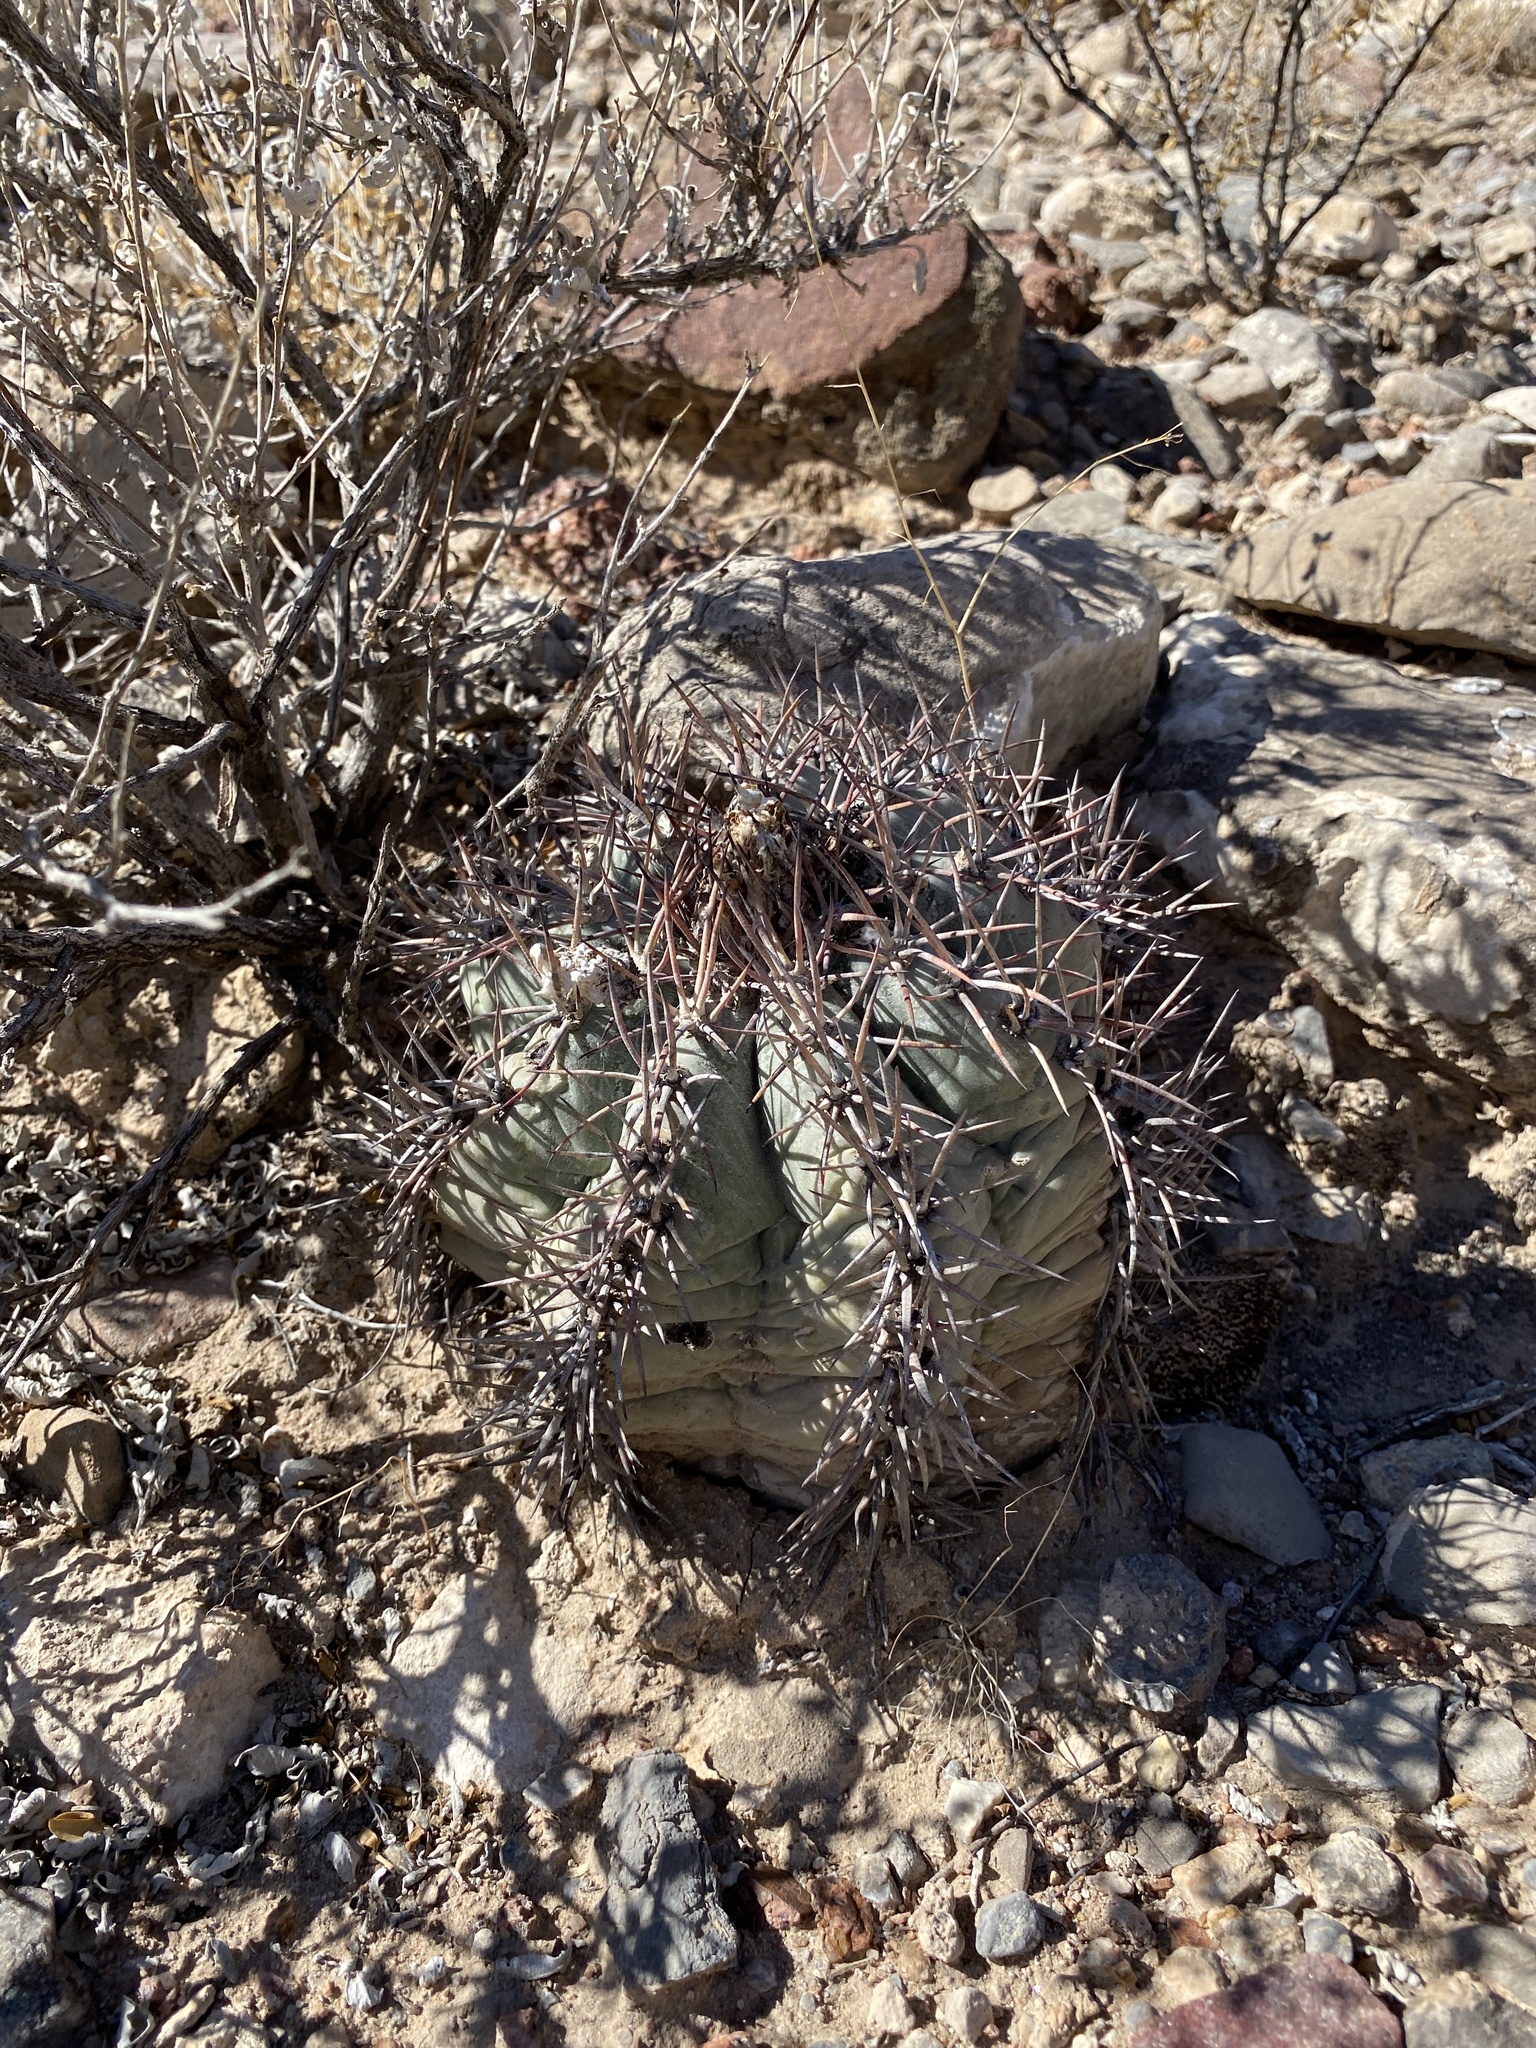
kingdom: Plantae
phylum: Tracheophyta
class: Magnoliopsida
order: Caryophyllales
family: Cactaceae
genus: Echinocactus
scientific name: Echinocactus horizonthalonius
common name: Devilshead
